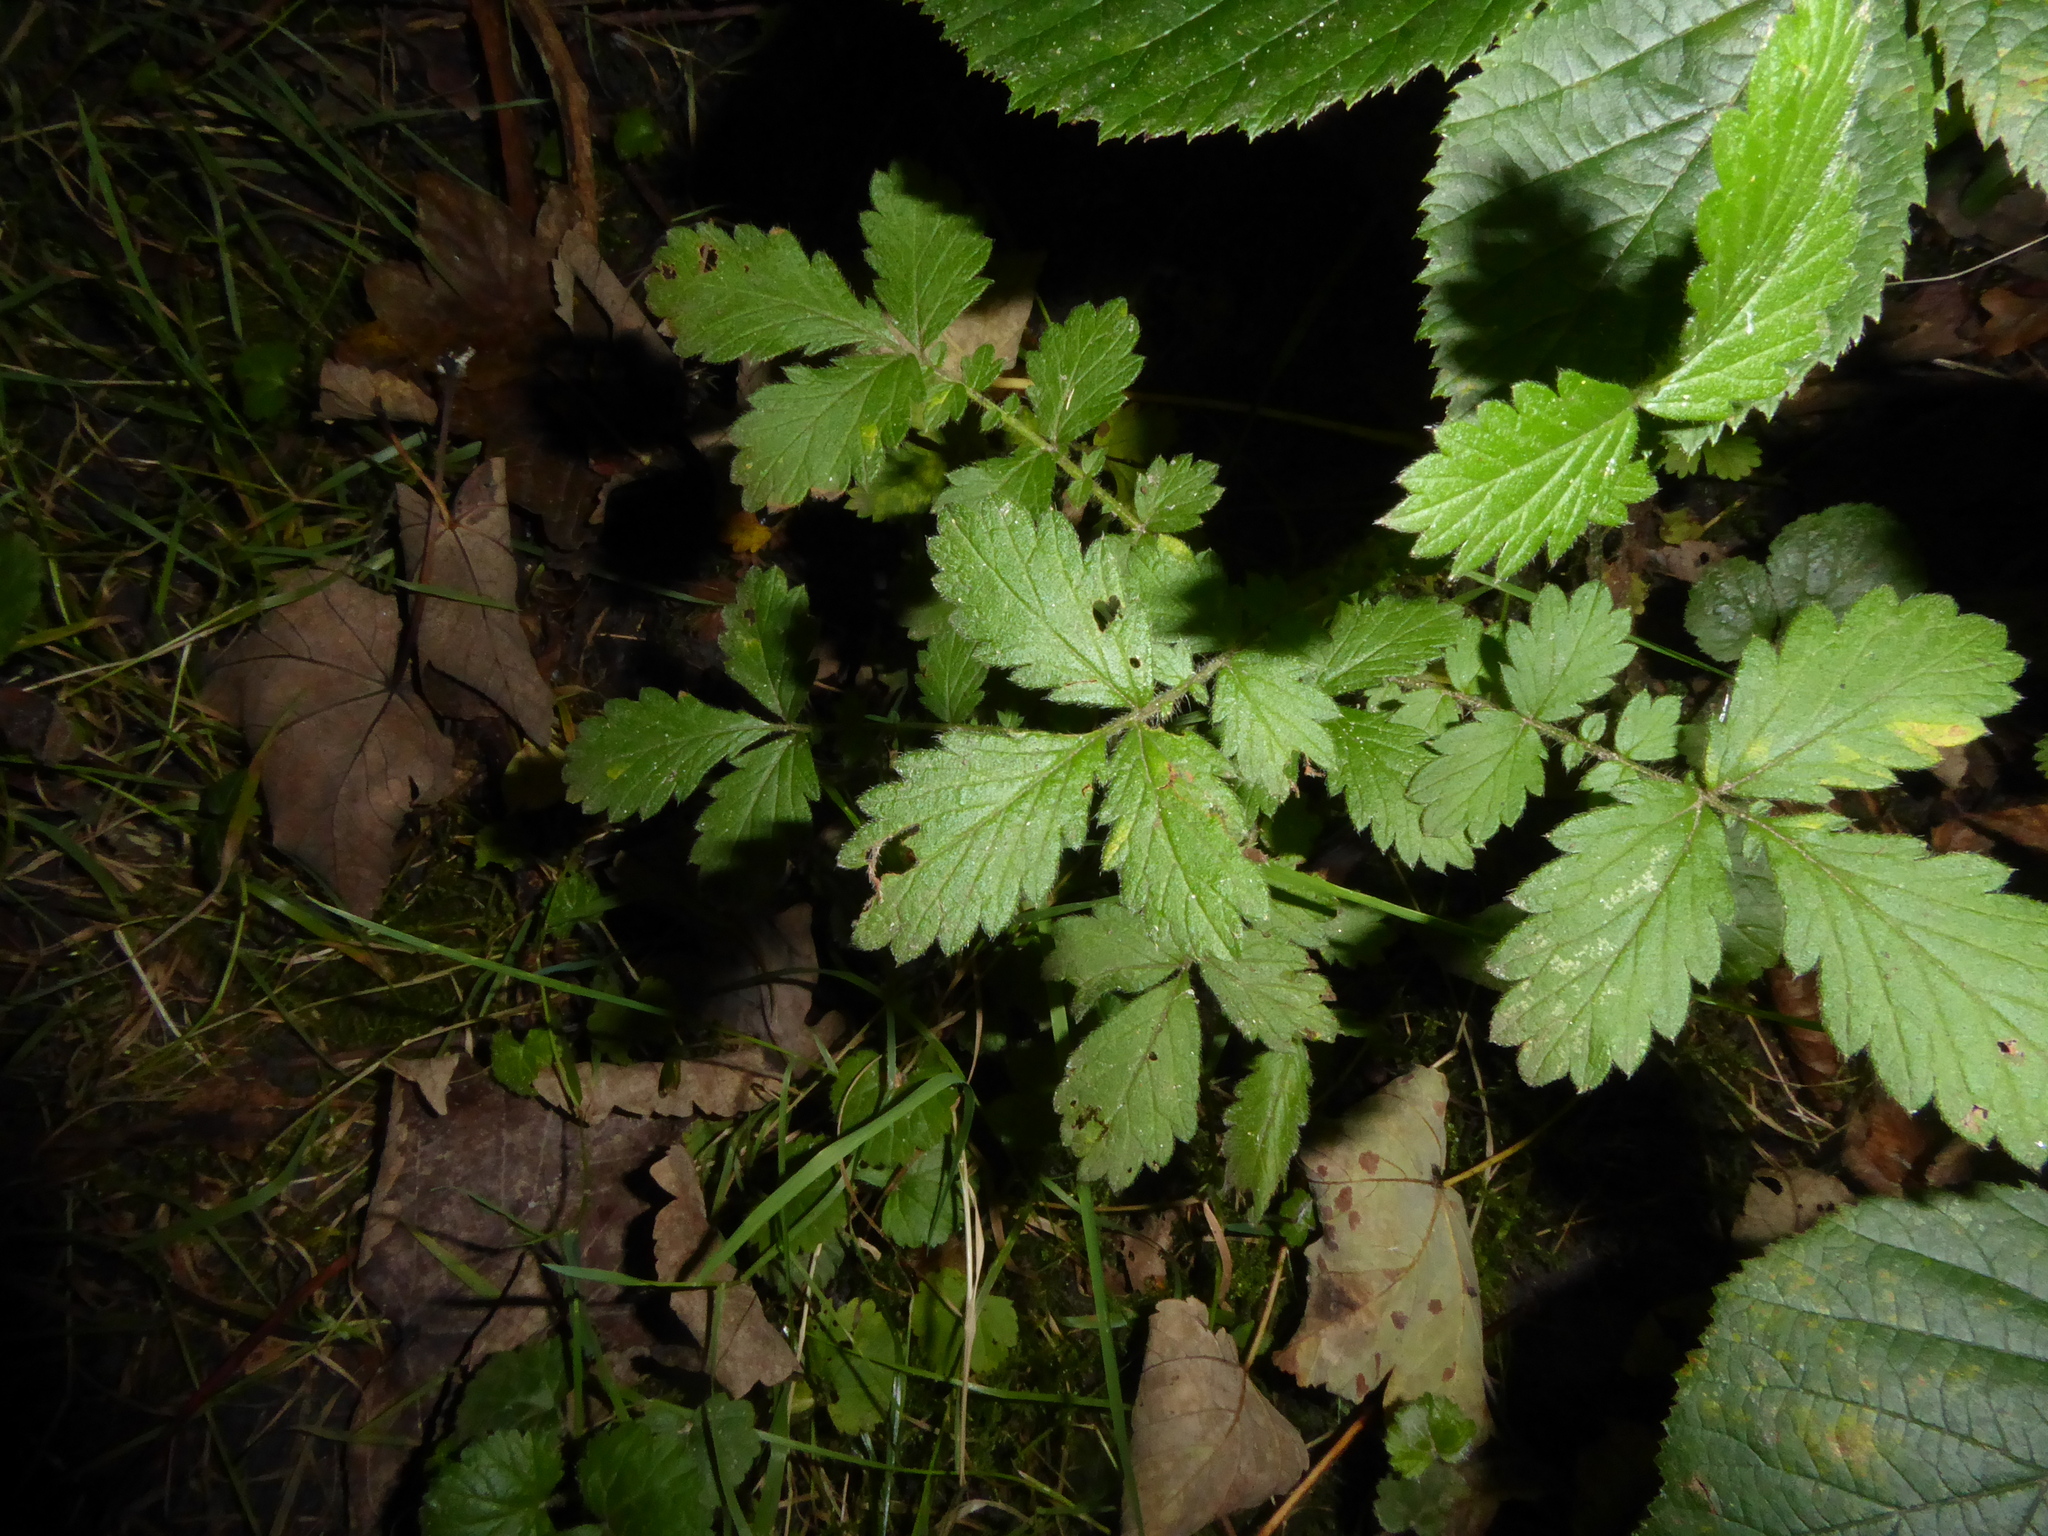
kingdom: Plantae
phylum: Tracheophyta
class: Magnoliopsida
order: Rosales
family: Rosaceae
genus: Agrimonia
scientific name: Agrimonia eupatoria
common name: Agrimony
